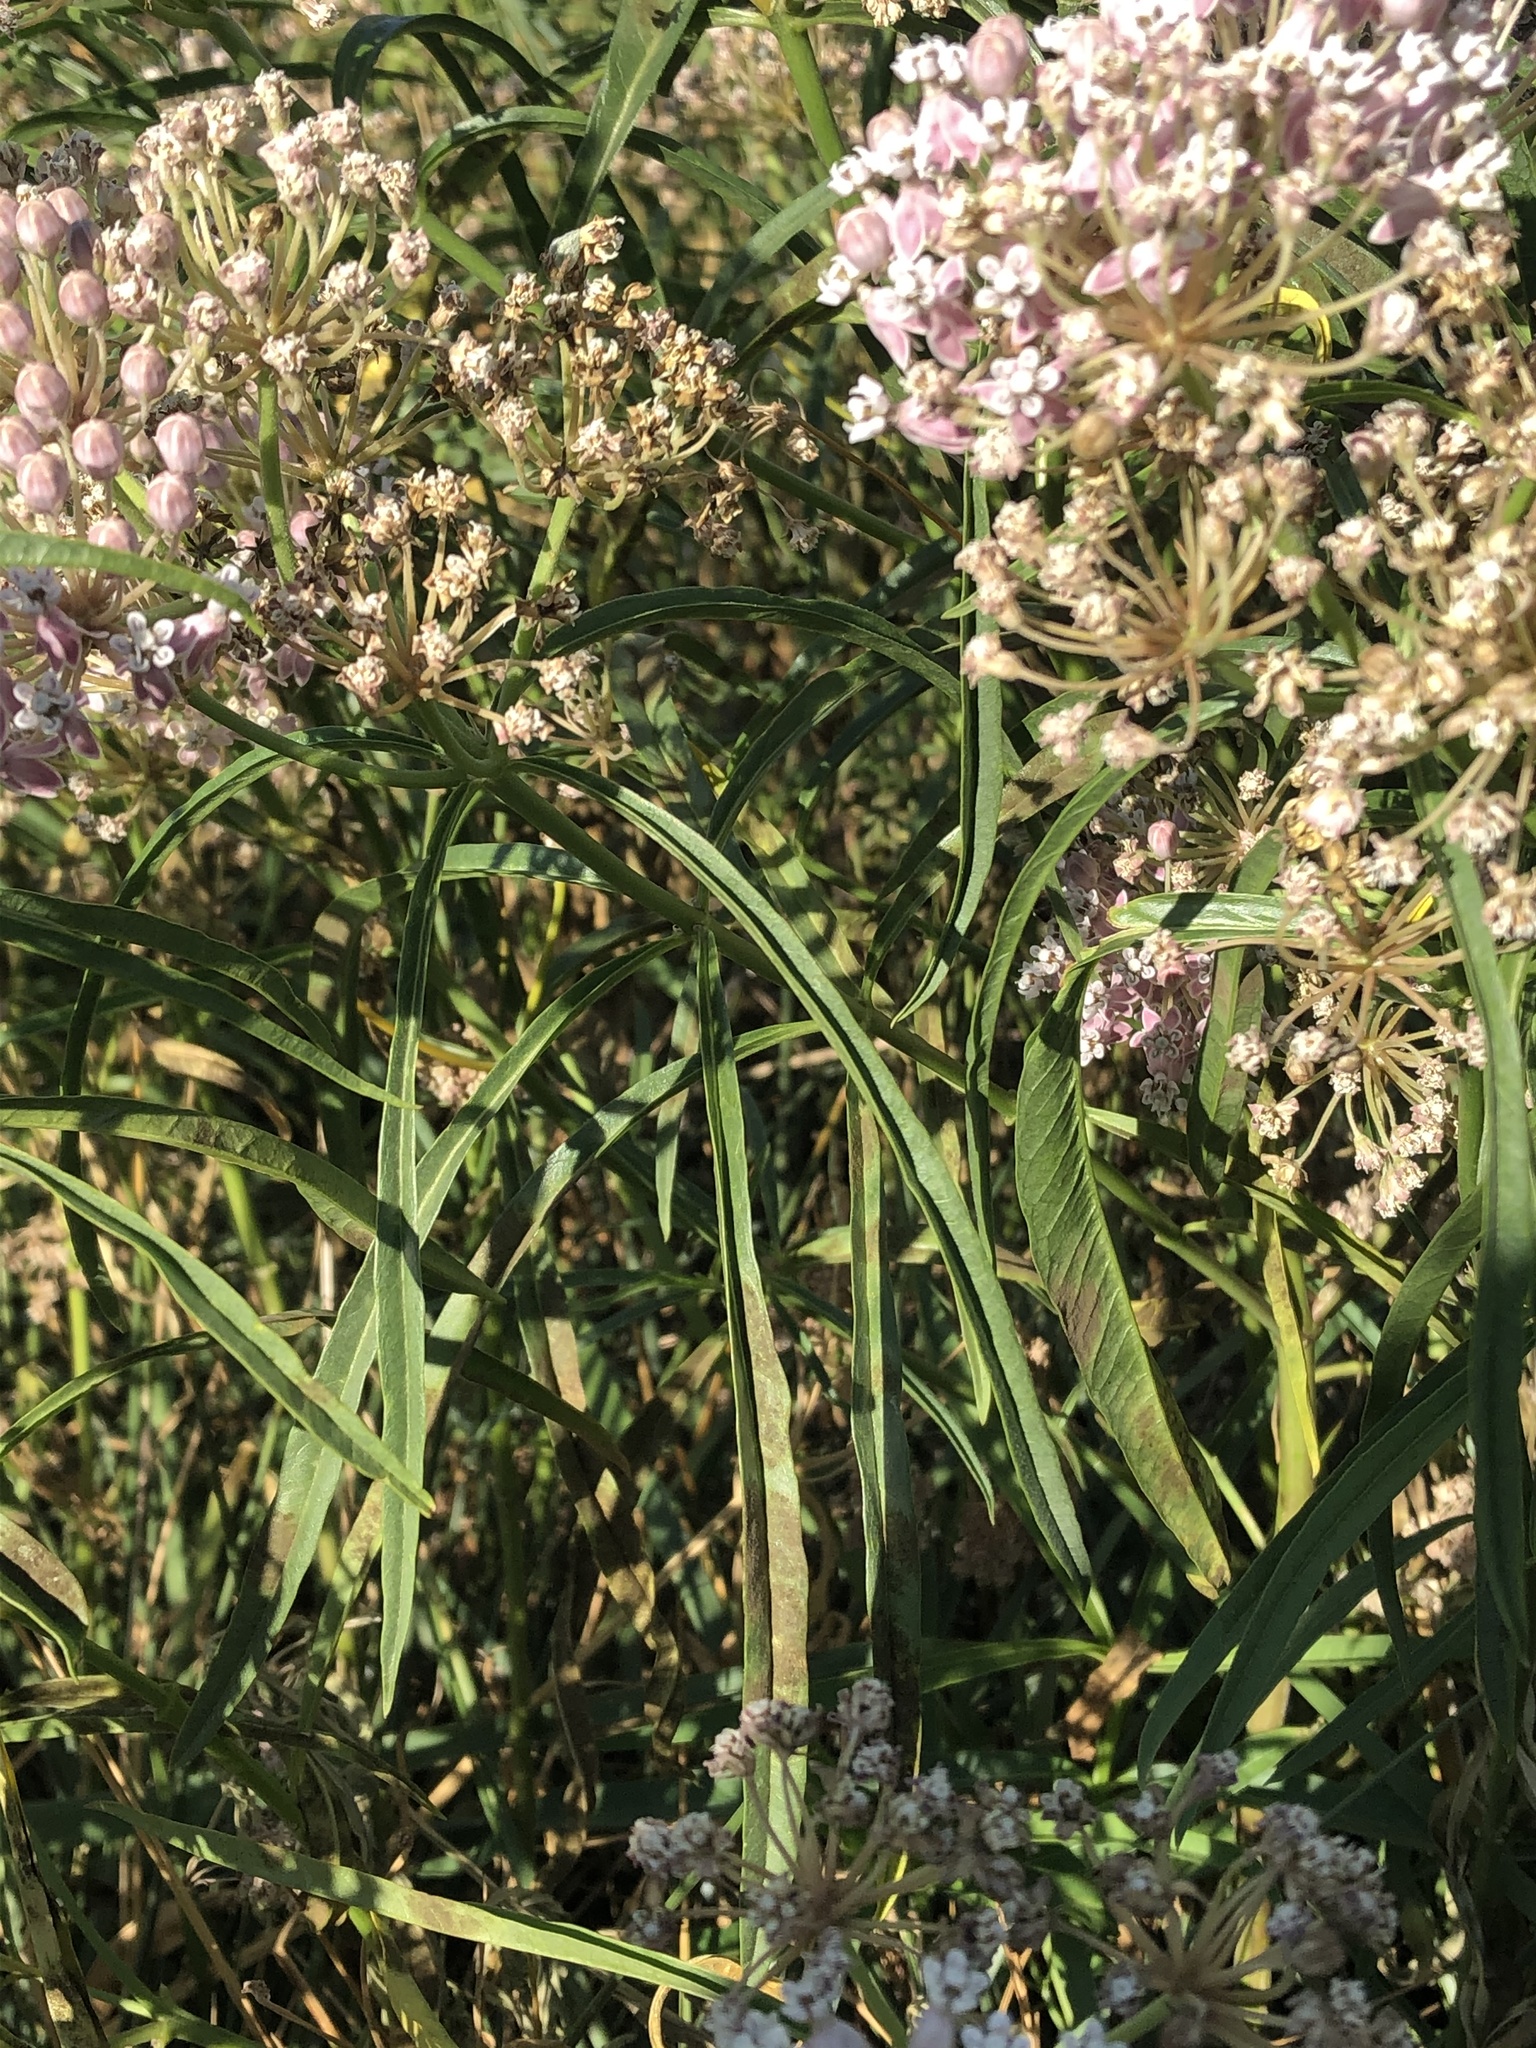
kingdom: Plantae
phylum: Tracheophyta
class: Magnoliopsida
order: Gentianales
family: Apocynaceae
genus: Asclepias
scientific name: Asclepias fascicularis
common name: Mexican milkweed
